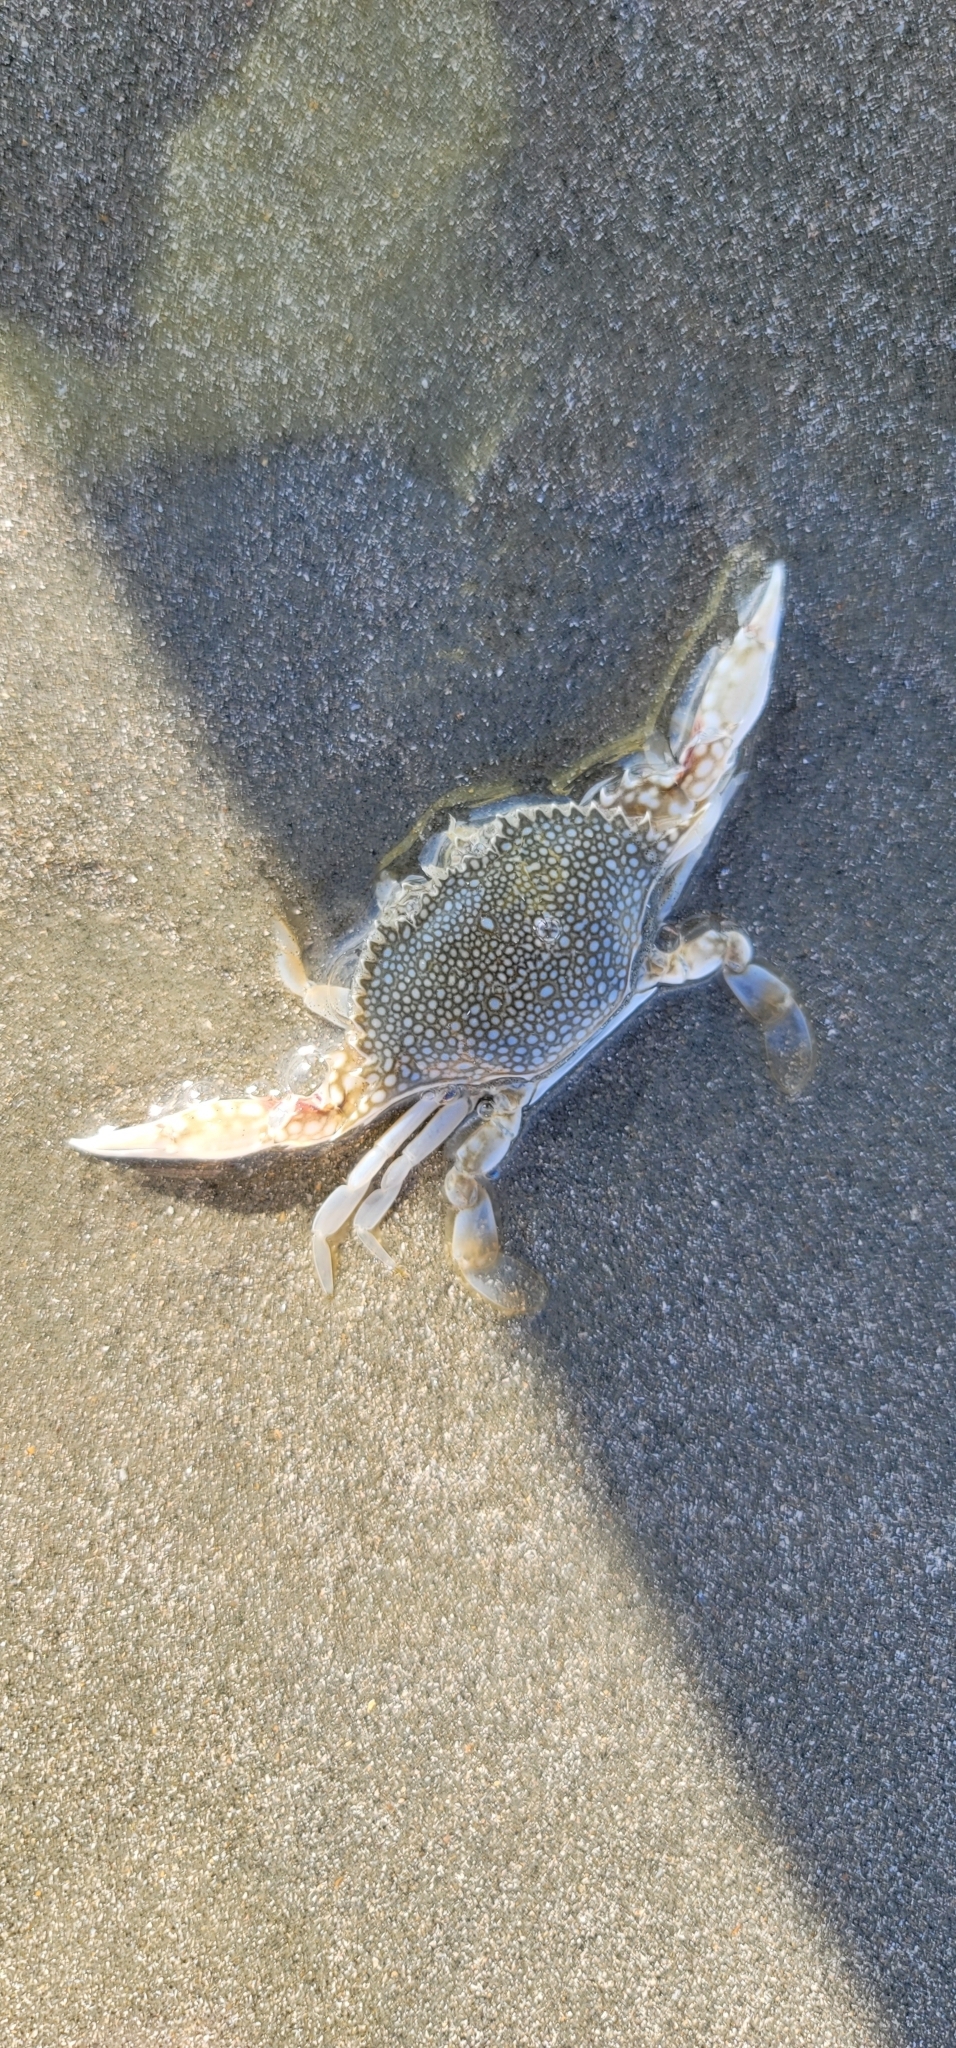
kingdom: Animalia
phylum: Arthropoda
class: Malacostraca
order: Decapoda
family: Portunidae
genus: Arenaeus
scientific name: Arenaeus cribrarius
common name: Speckled crab
